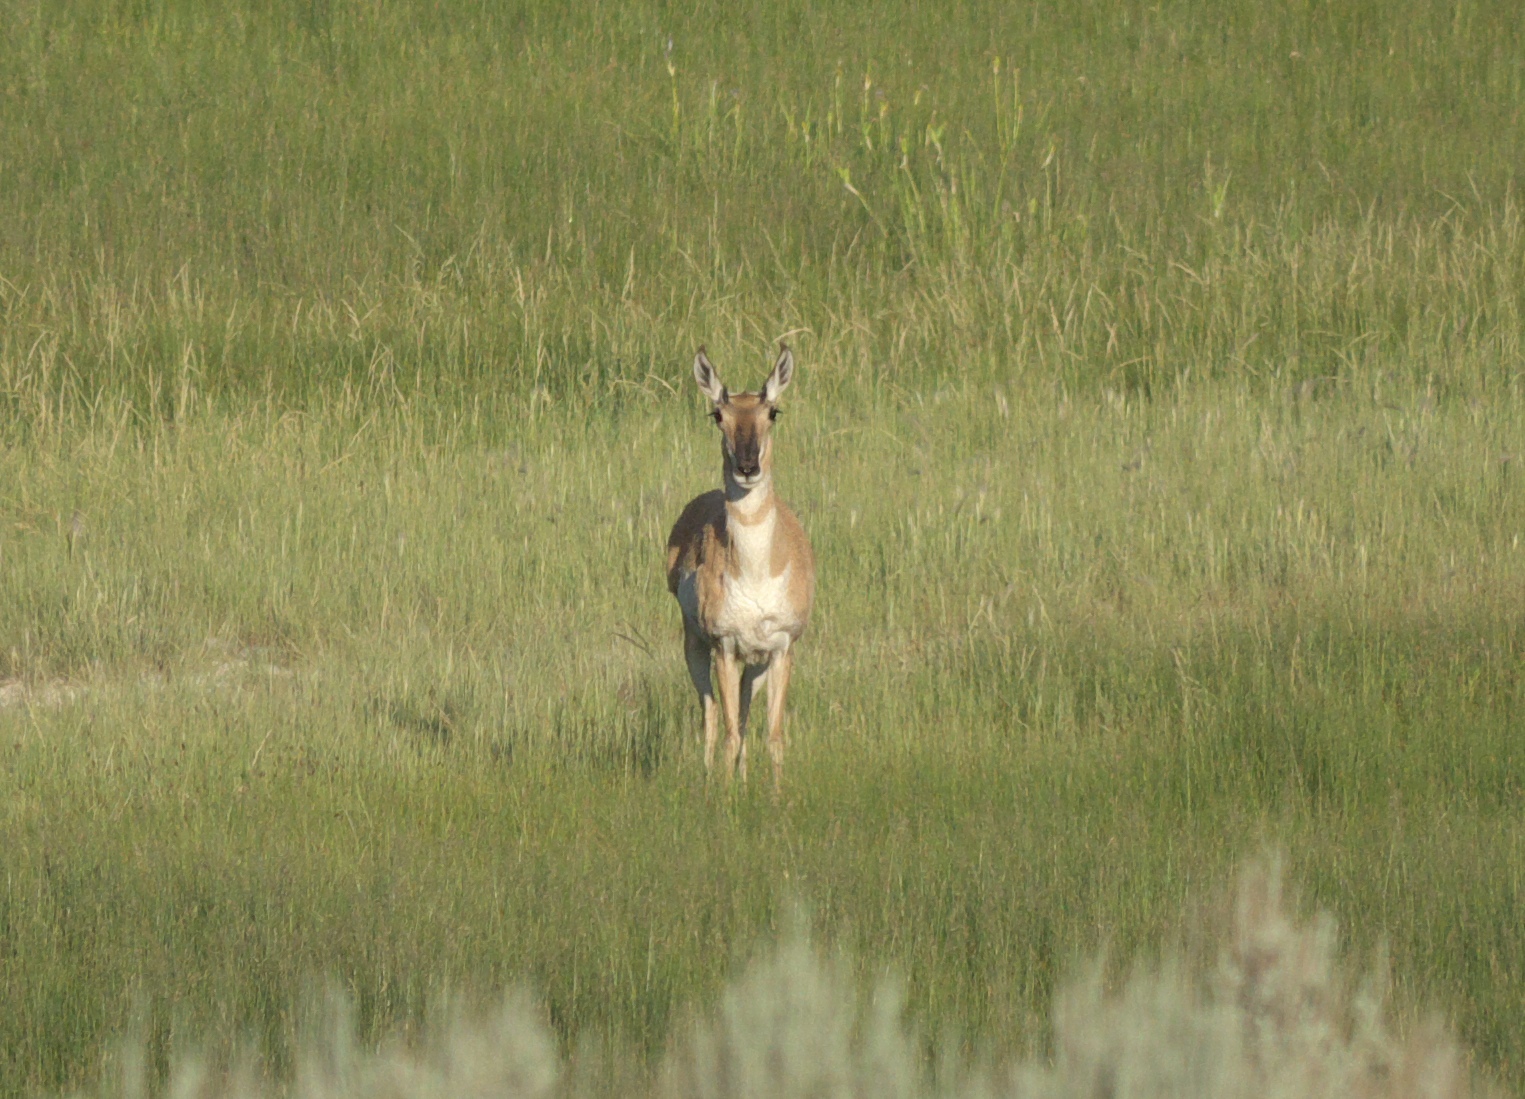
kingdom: Animalia
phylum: Chordata
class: Mammalia
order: Artiodactyla
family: Antilocapridae
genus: Antilocapra
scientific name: Antilocapra americana
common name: Pronghorn
